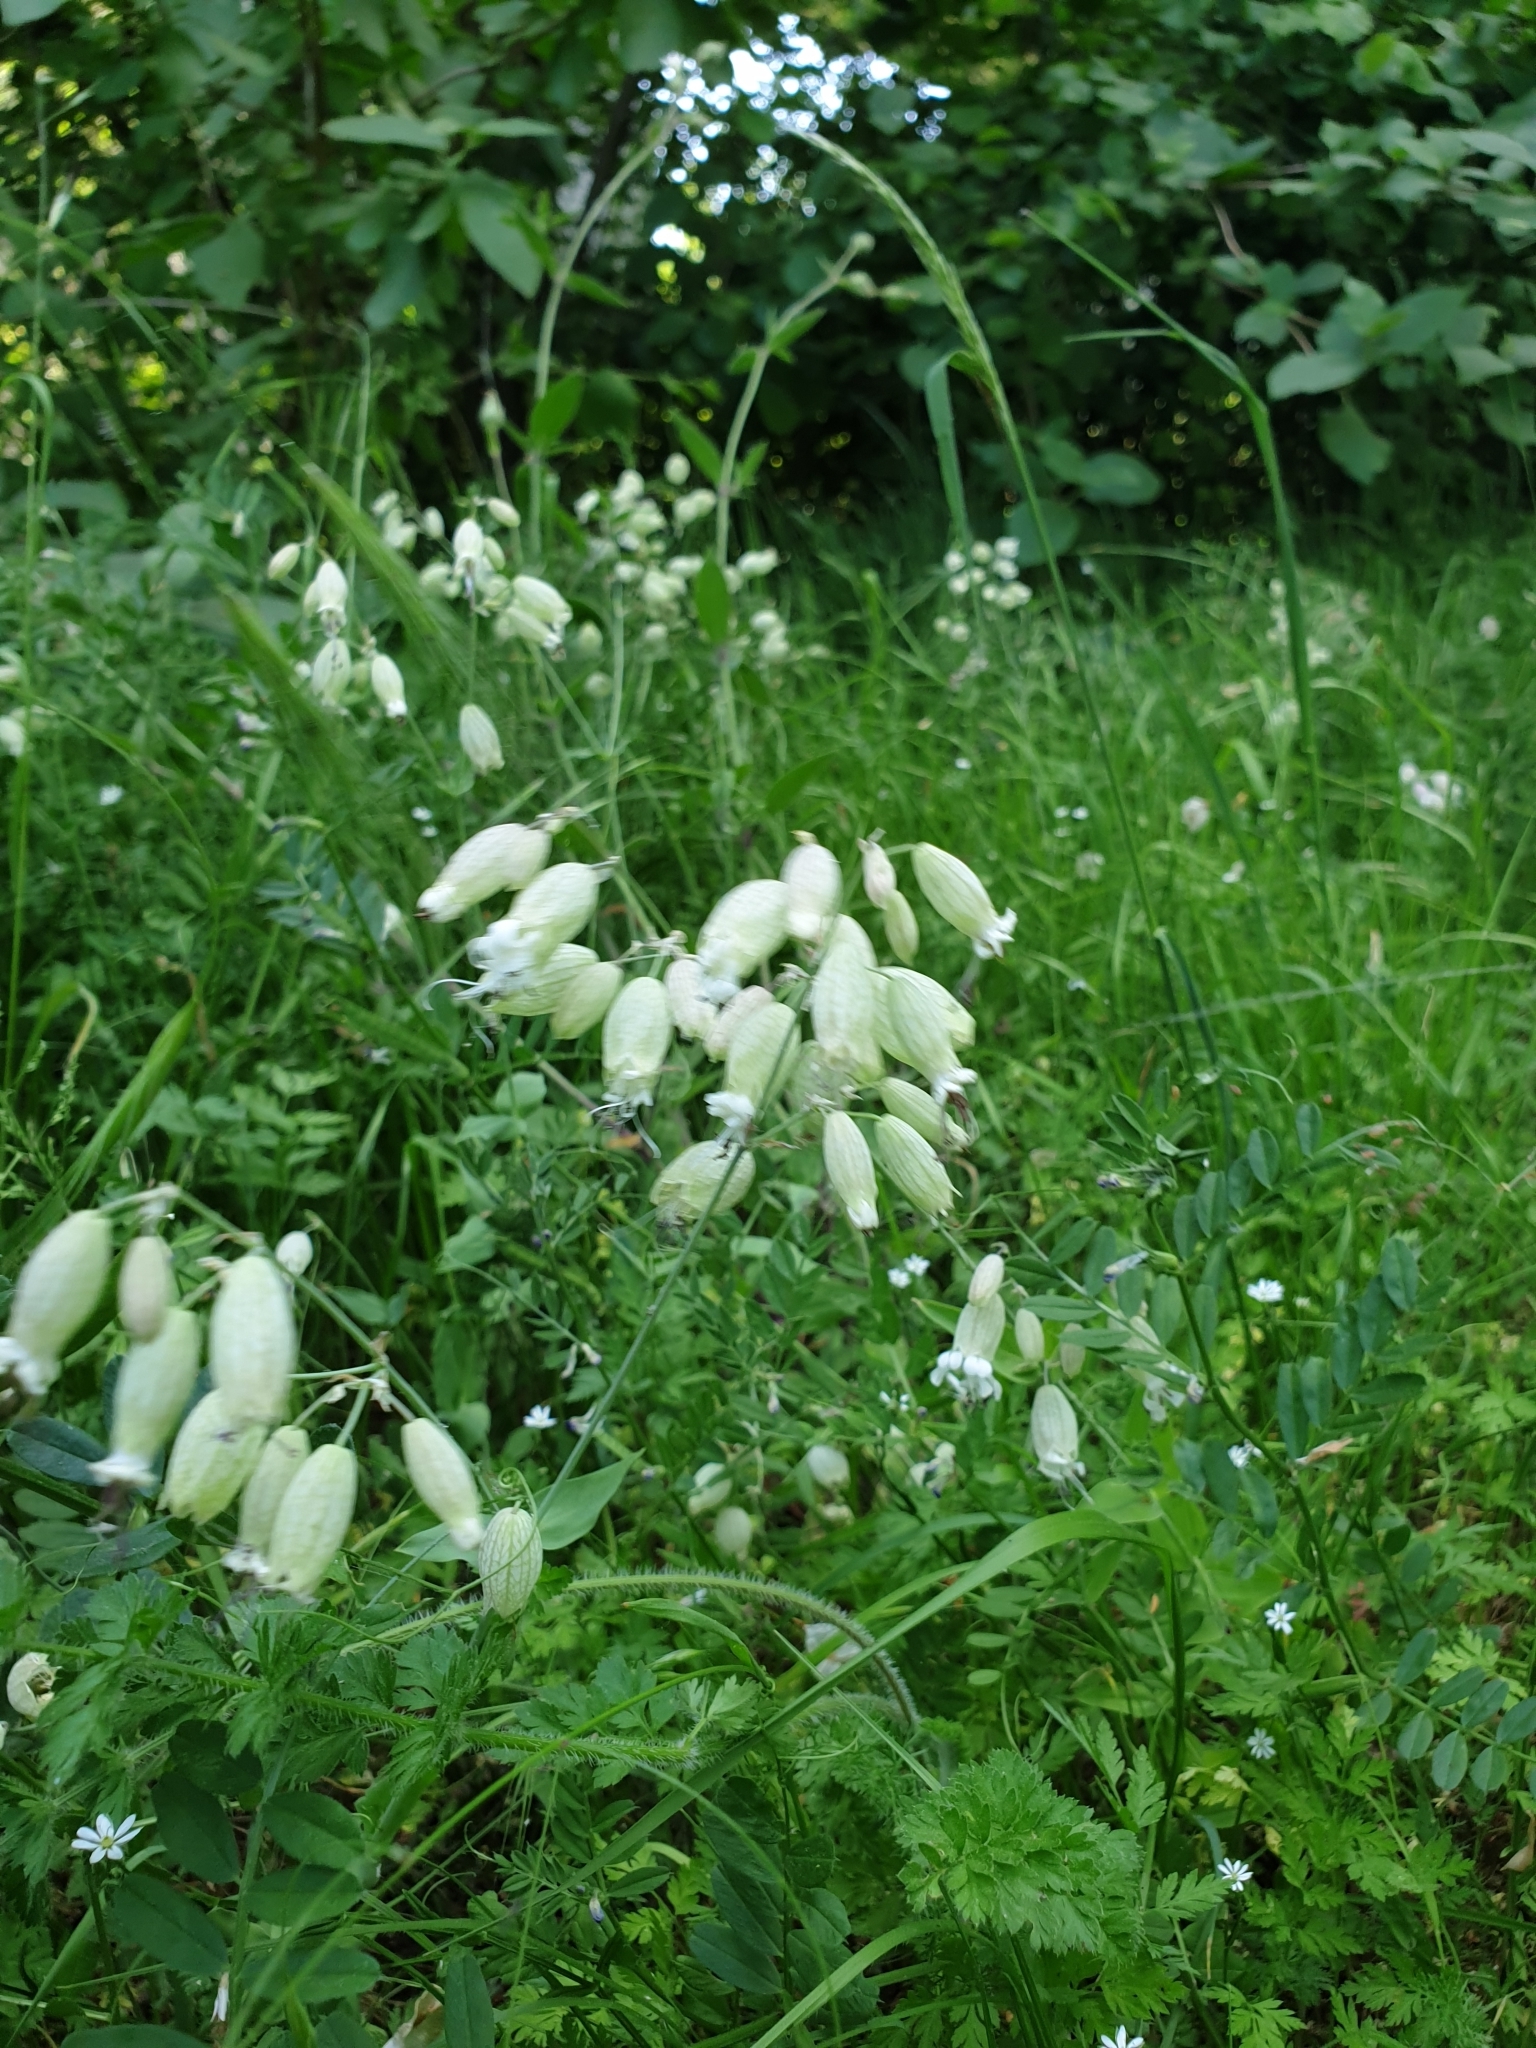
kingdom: Plantae
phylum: Tracheophyta
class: Magnoliopsida
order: Caryophyllales
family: Caryophyllaceae
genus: Silene
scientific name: Silene vulgaris
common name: Bladder campion
